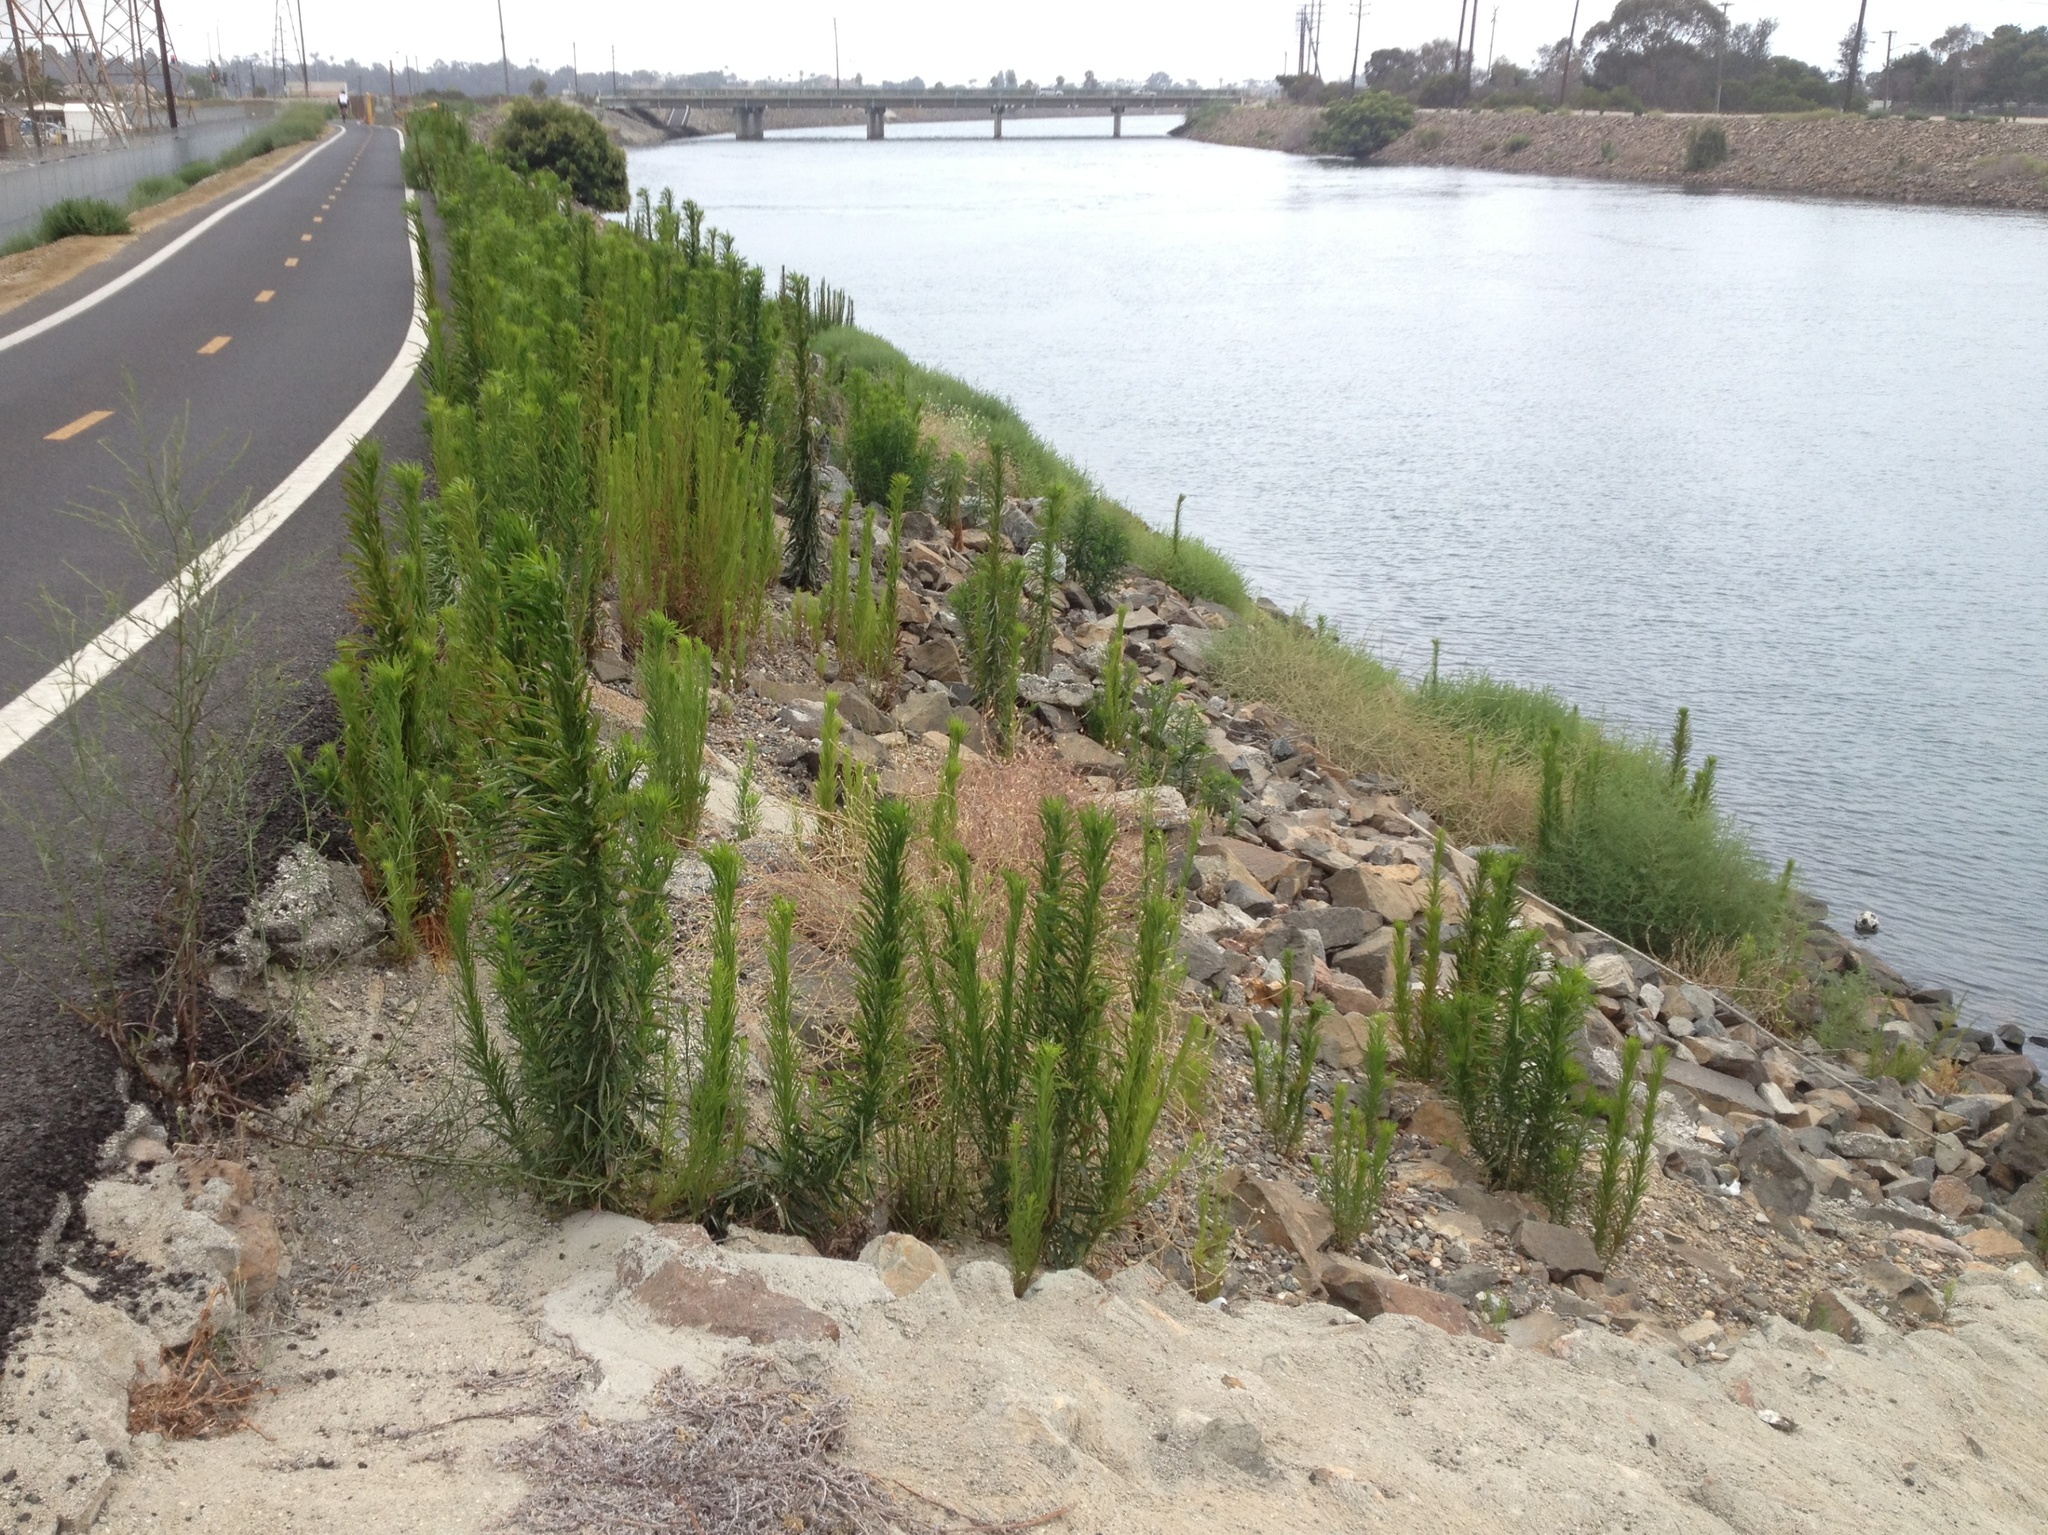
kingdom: Plantae
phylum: Tracheophyta
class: Magnoliopsida
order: Asterales
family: Asteraceae
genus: Erigeron
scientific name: Erigeron canadensis
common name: Canadian fleabane
